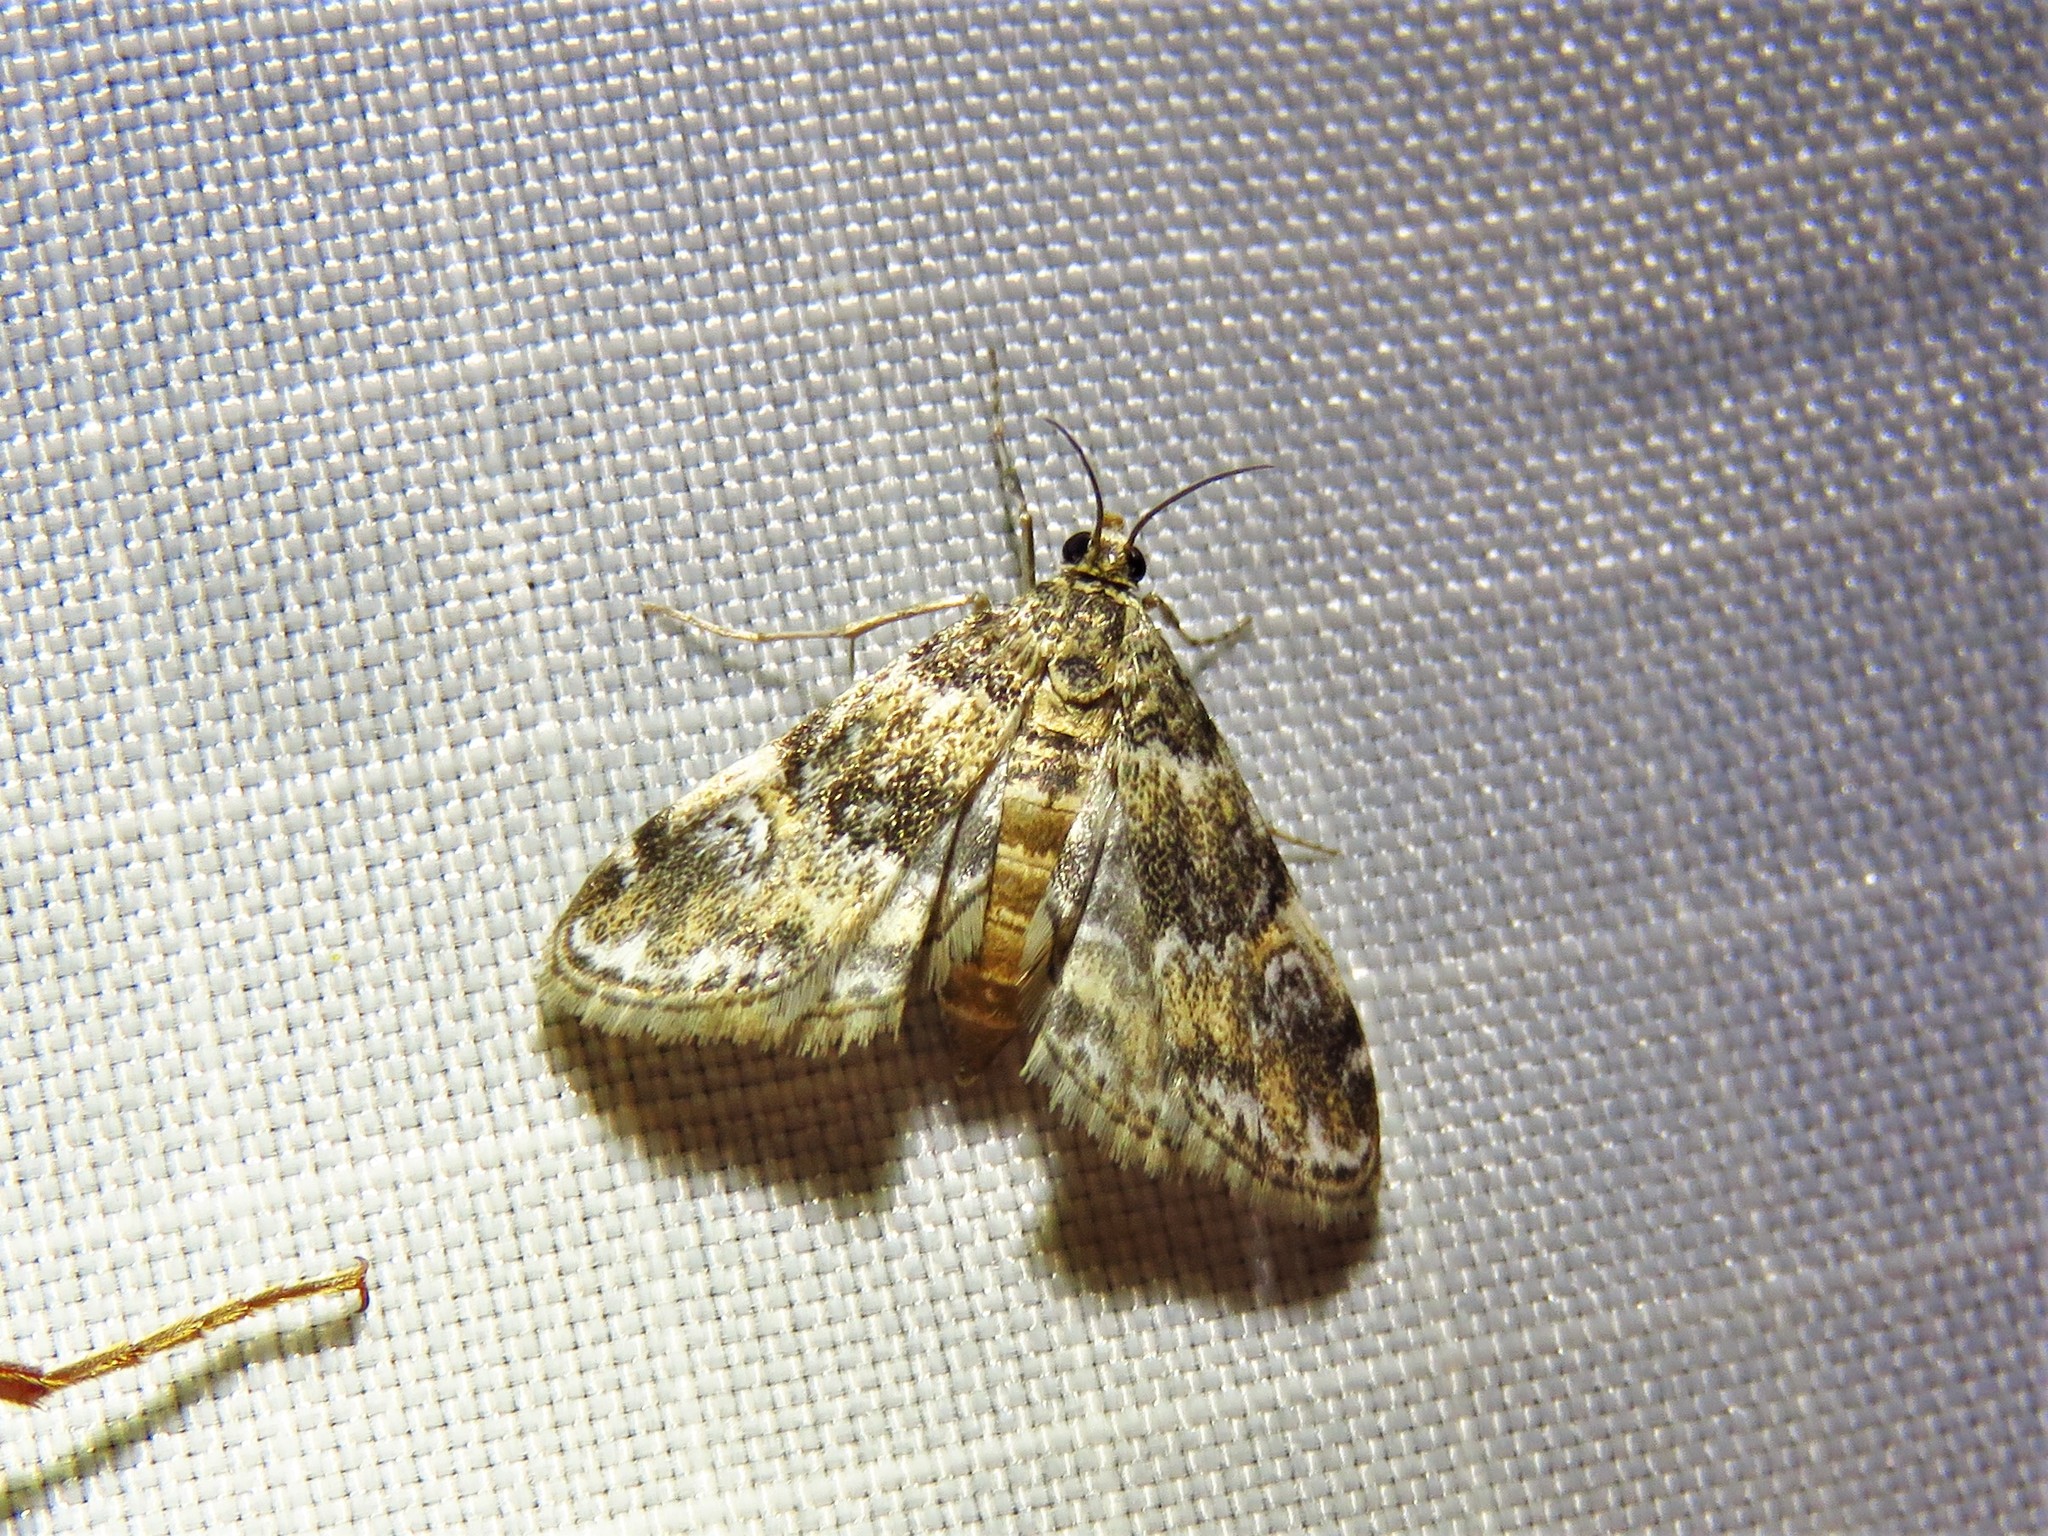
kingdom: Animalia
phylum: Arthropoda
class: Insecta
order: Lepidoptera
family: Crambidae
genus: Elophila
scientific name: Elophila obliteralis
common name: Waterlily leafcutter moth
